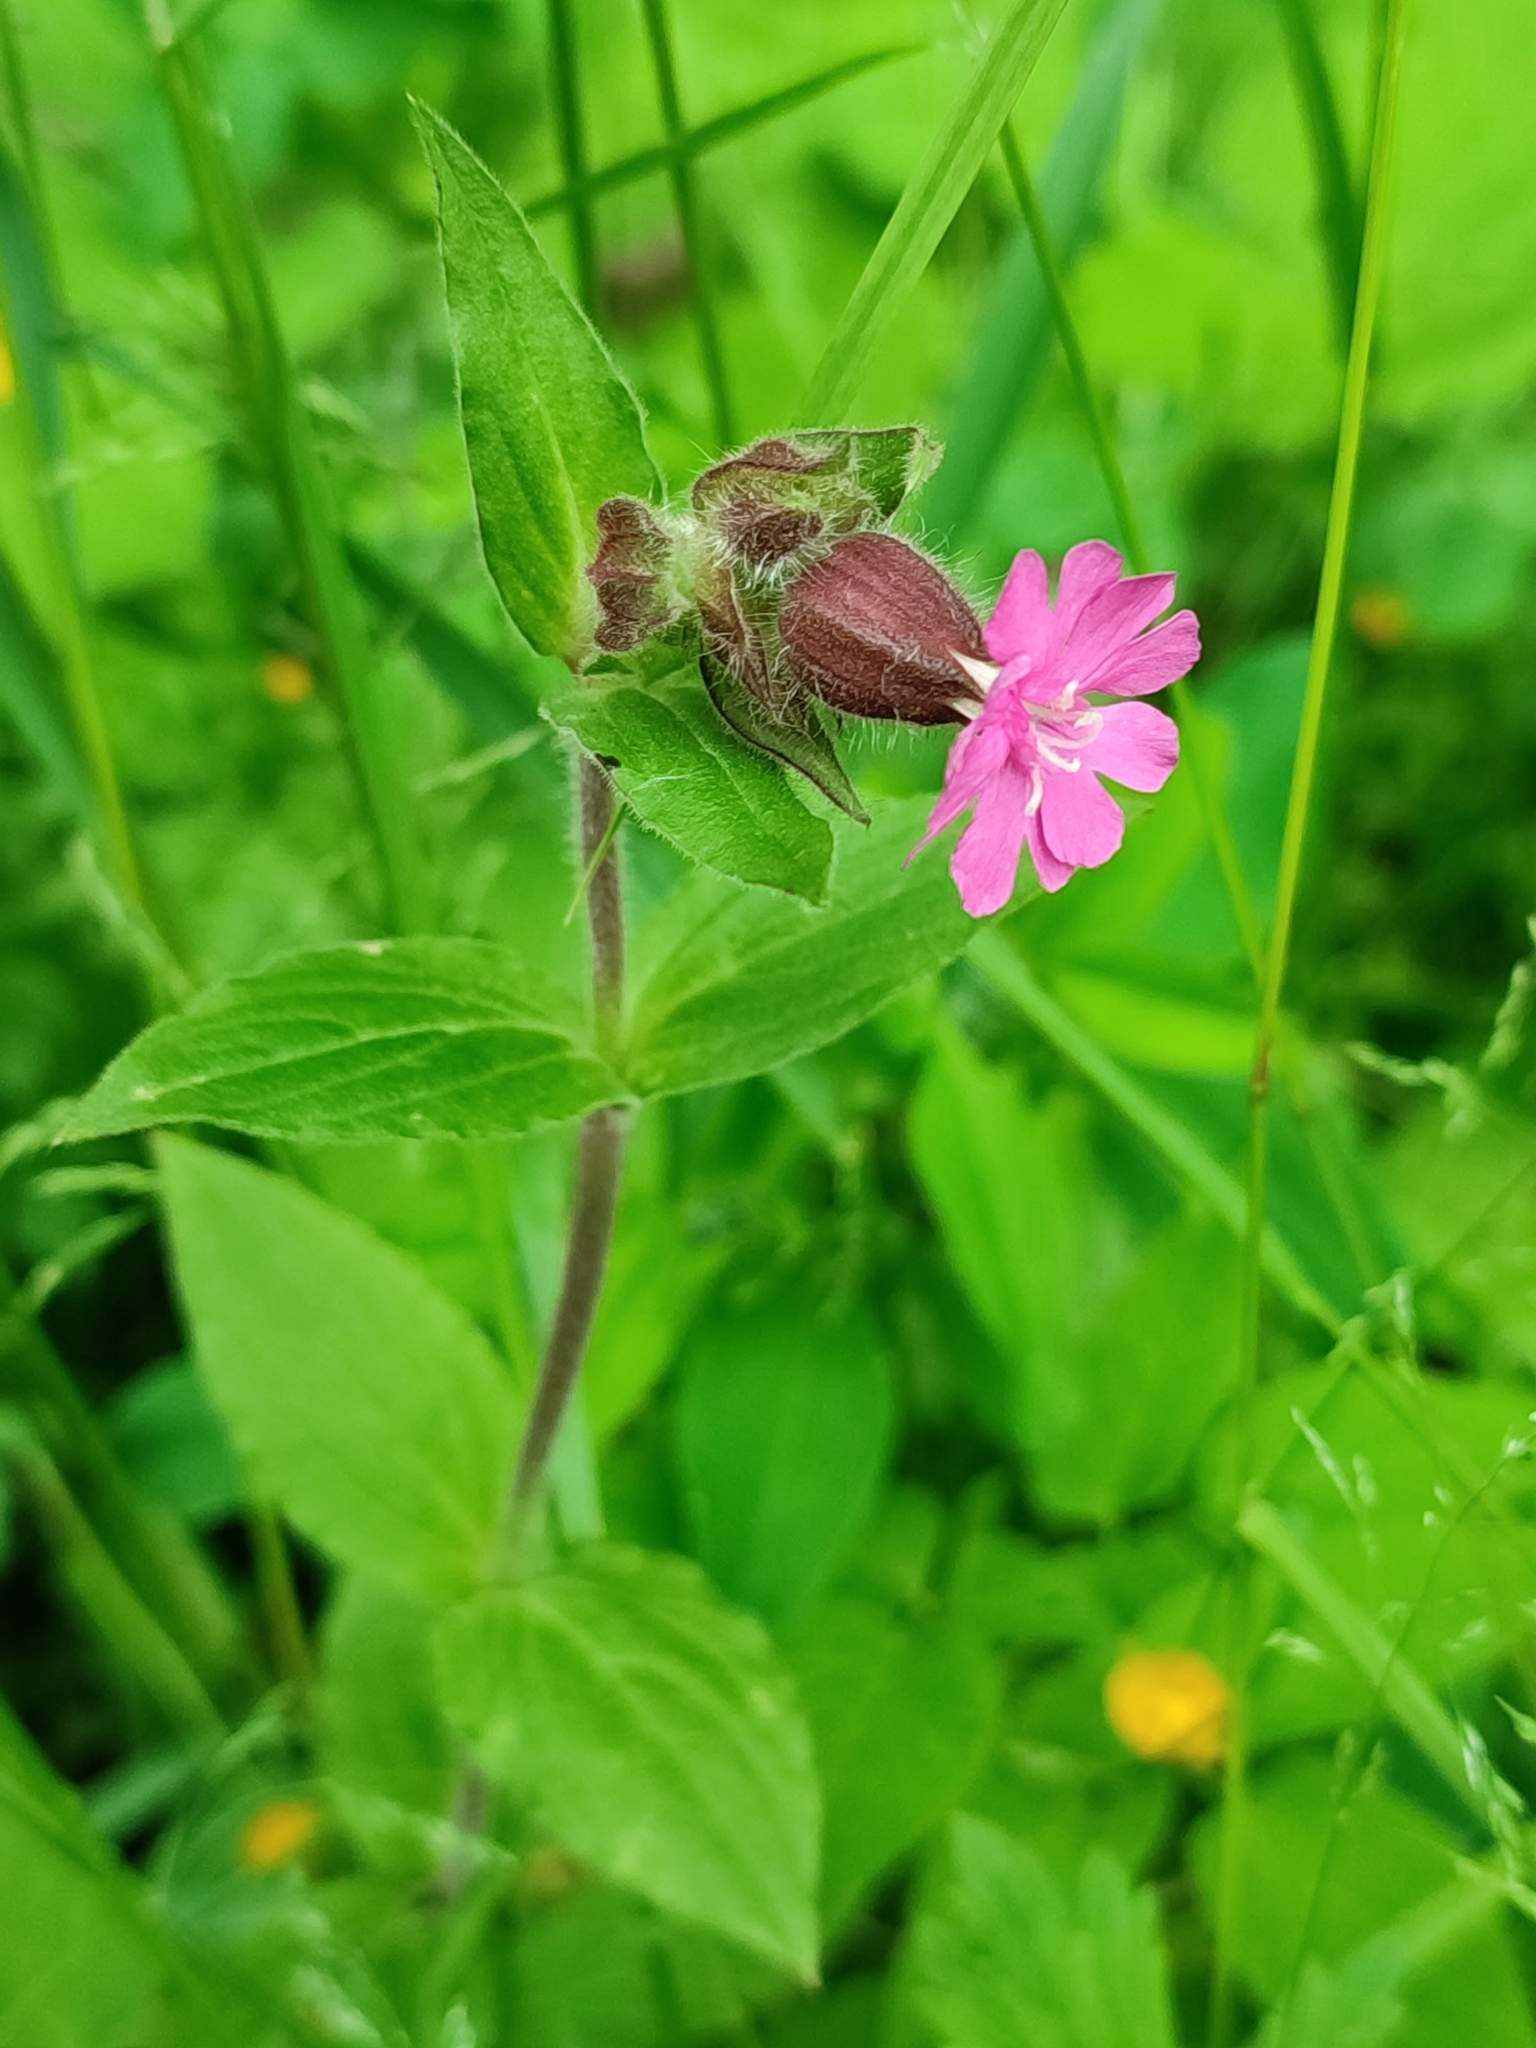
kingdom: Plantae
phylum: Tracheophyta
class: Magnoliopsida
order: Caryophyllales
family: Caryophyllaceae
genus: Silene
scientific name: Silene dioica
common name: Red campion
